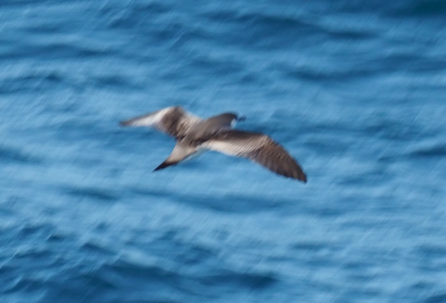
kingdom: Animalia
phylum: Chordata
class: Aves
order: Procellariiformes
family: Procellariidae
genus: Puffinus
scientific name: Puffinus bulleri
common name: Buller's shearwater
